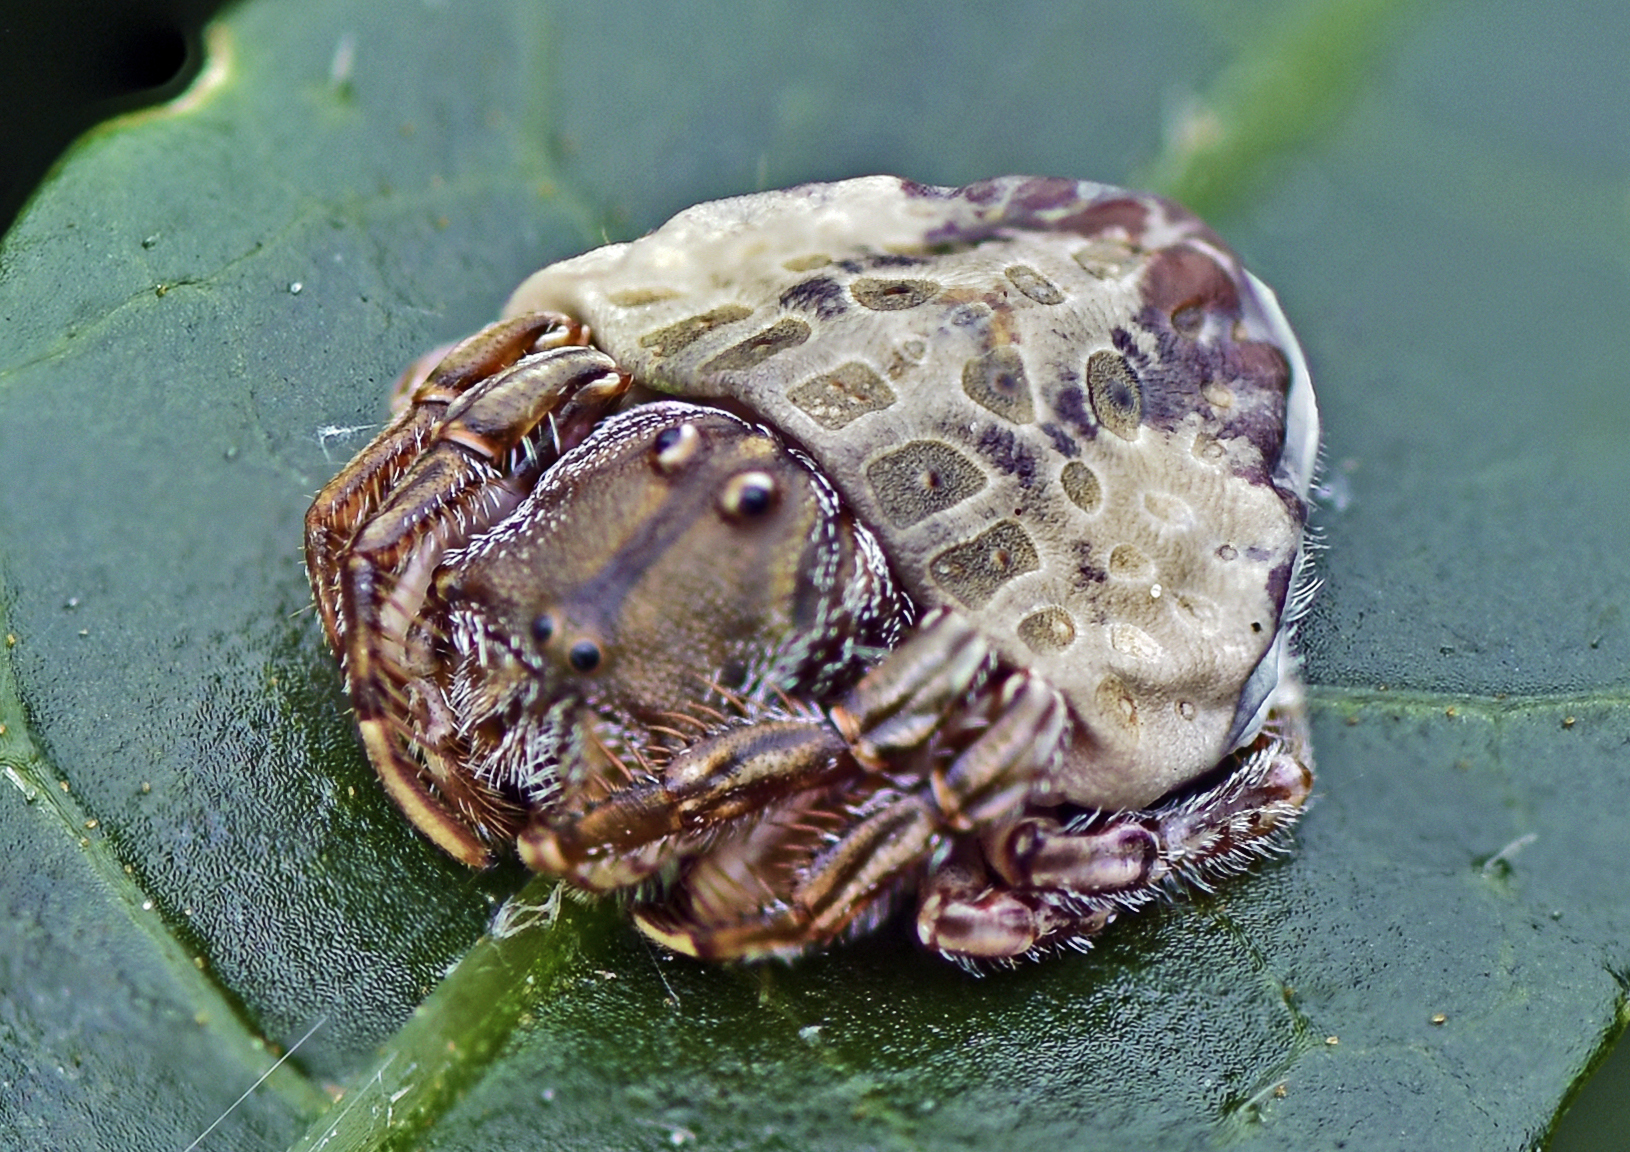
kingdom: Animalia
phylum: Arthropoda
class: Arachnida
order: Araneae
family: Arkyidae
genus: Arkys
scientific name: Arkys
